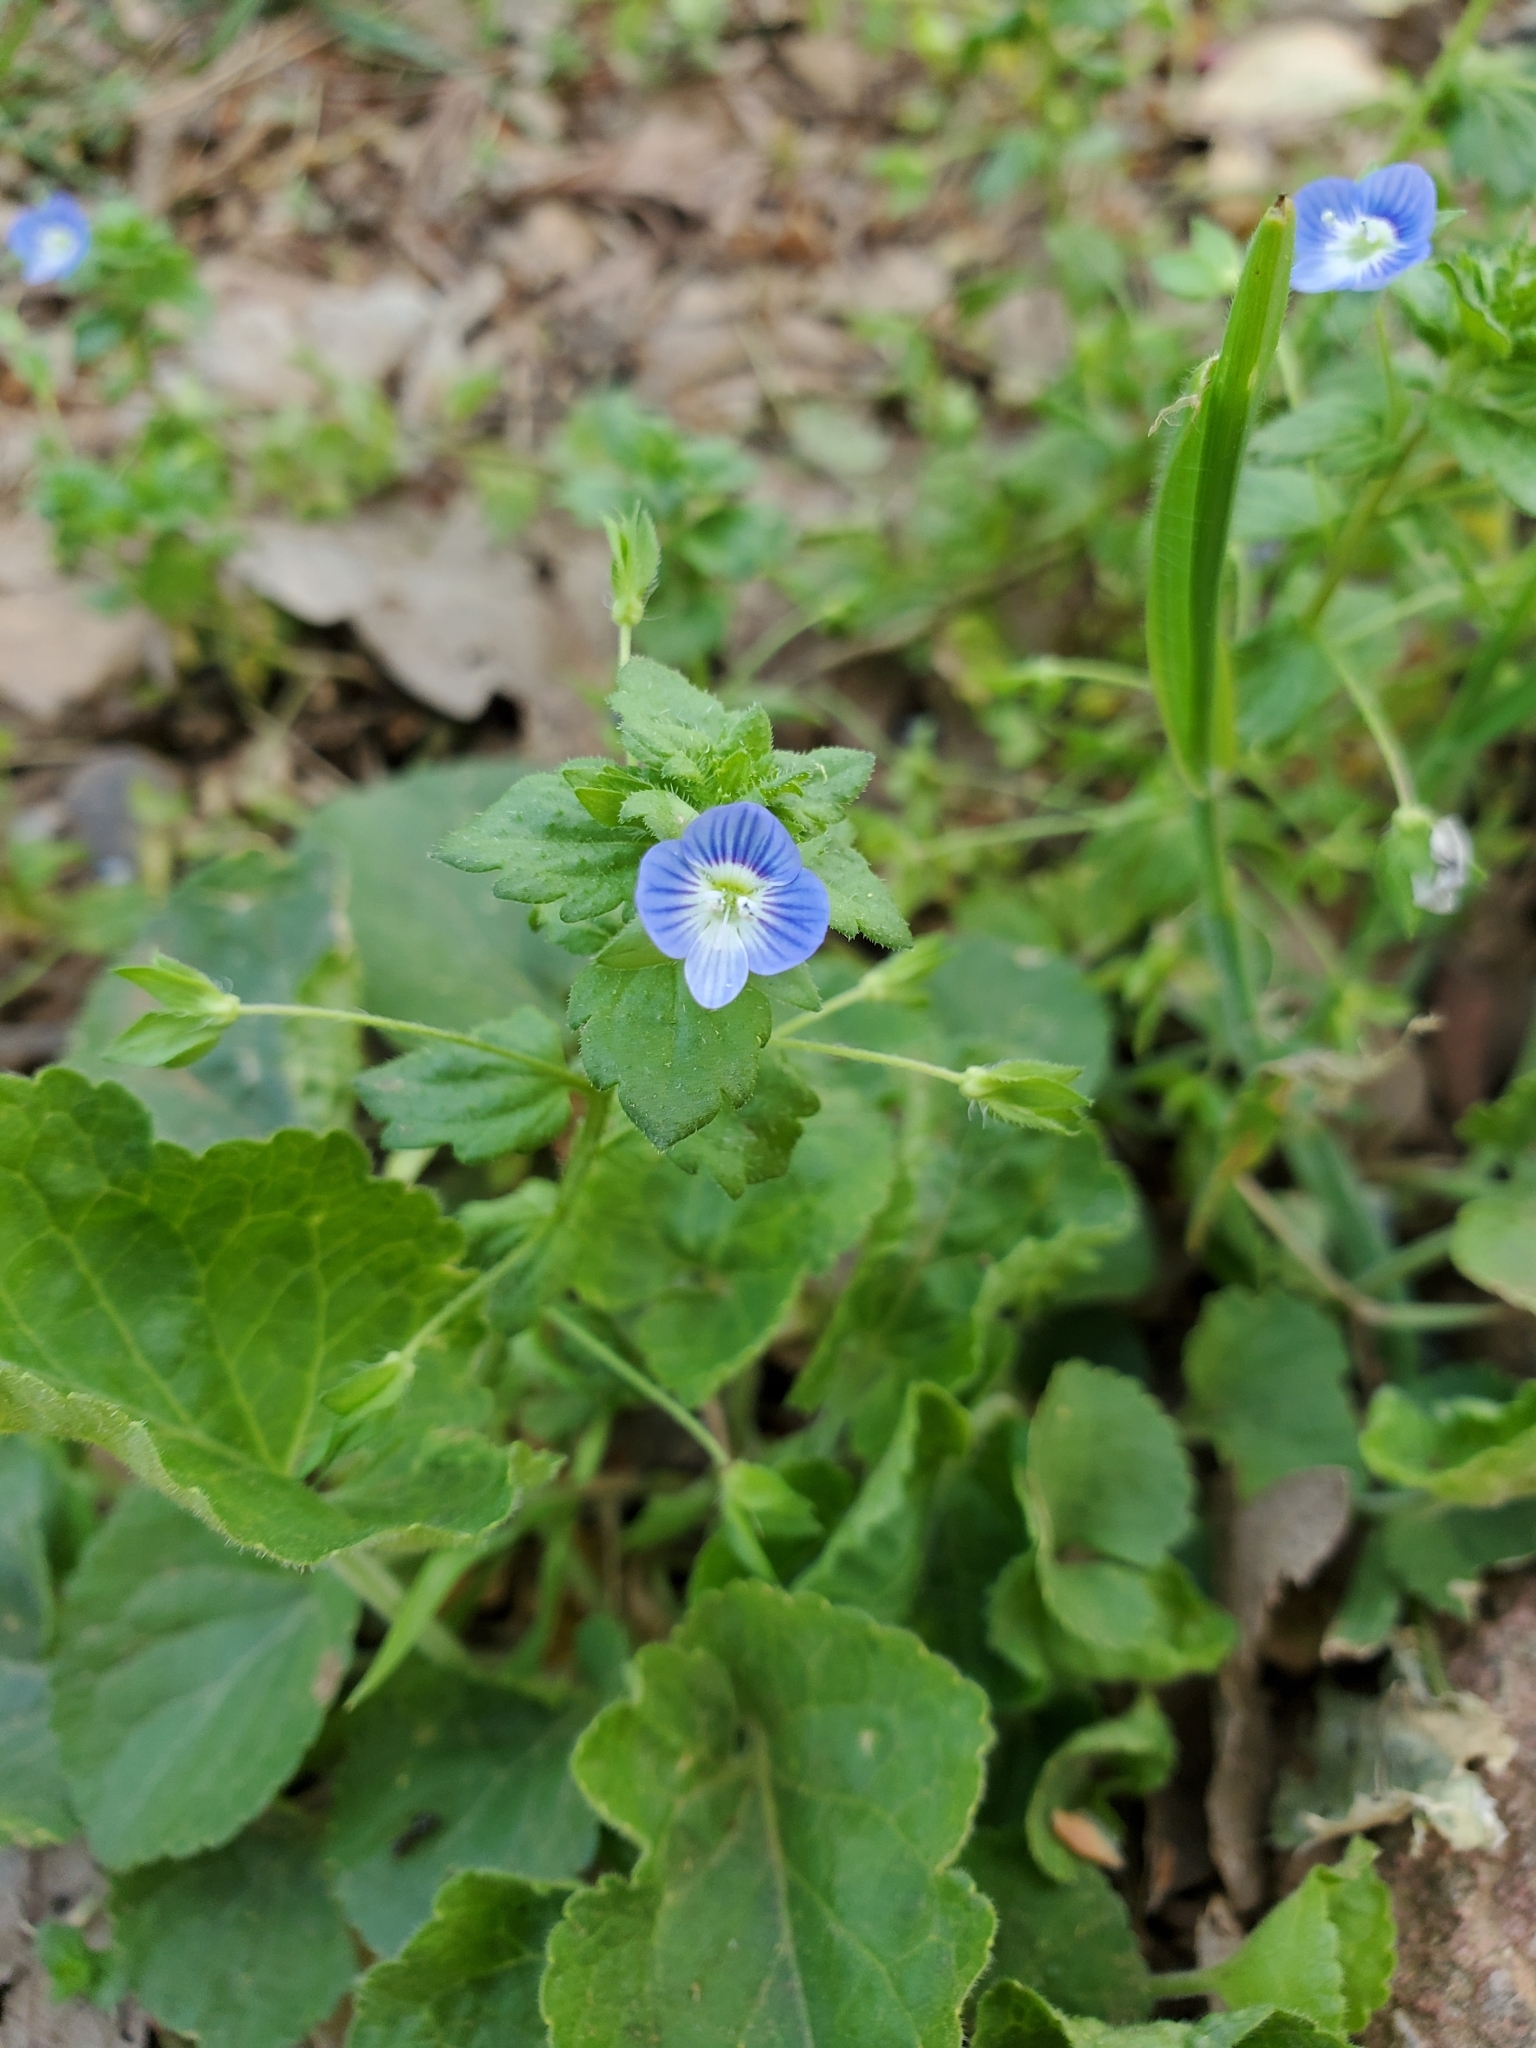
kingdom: Plantae
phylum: Tracheophyta
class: Magnoliopsida
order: Lamiales
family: Plantaginaceae
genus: Veronica
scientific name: Veronica persica
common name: Common field-speedwell
